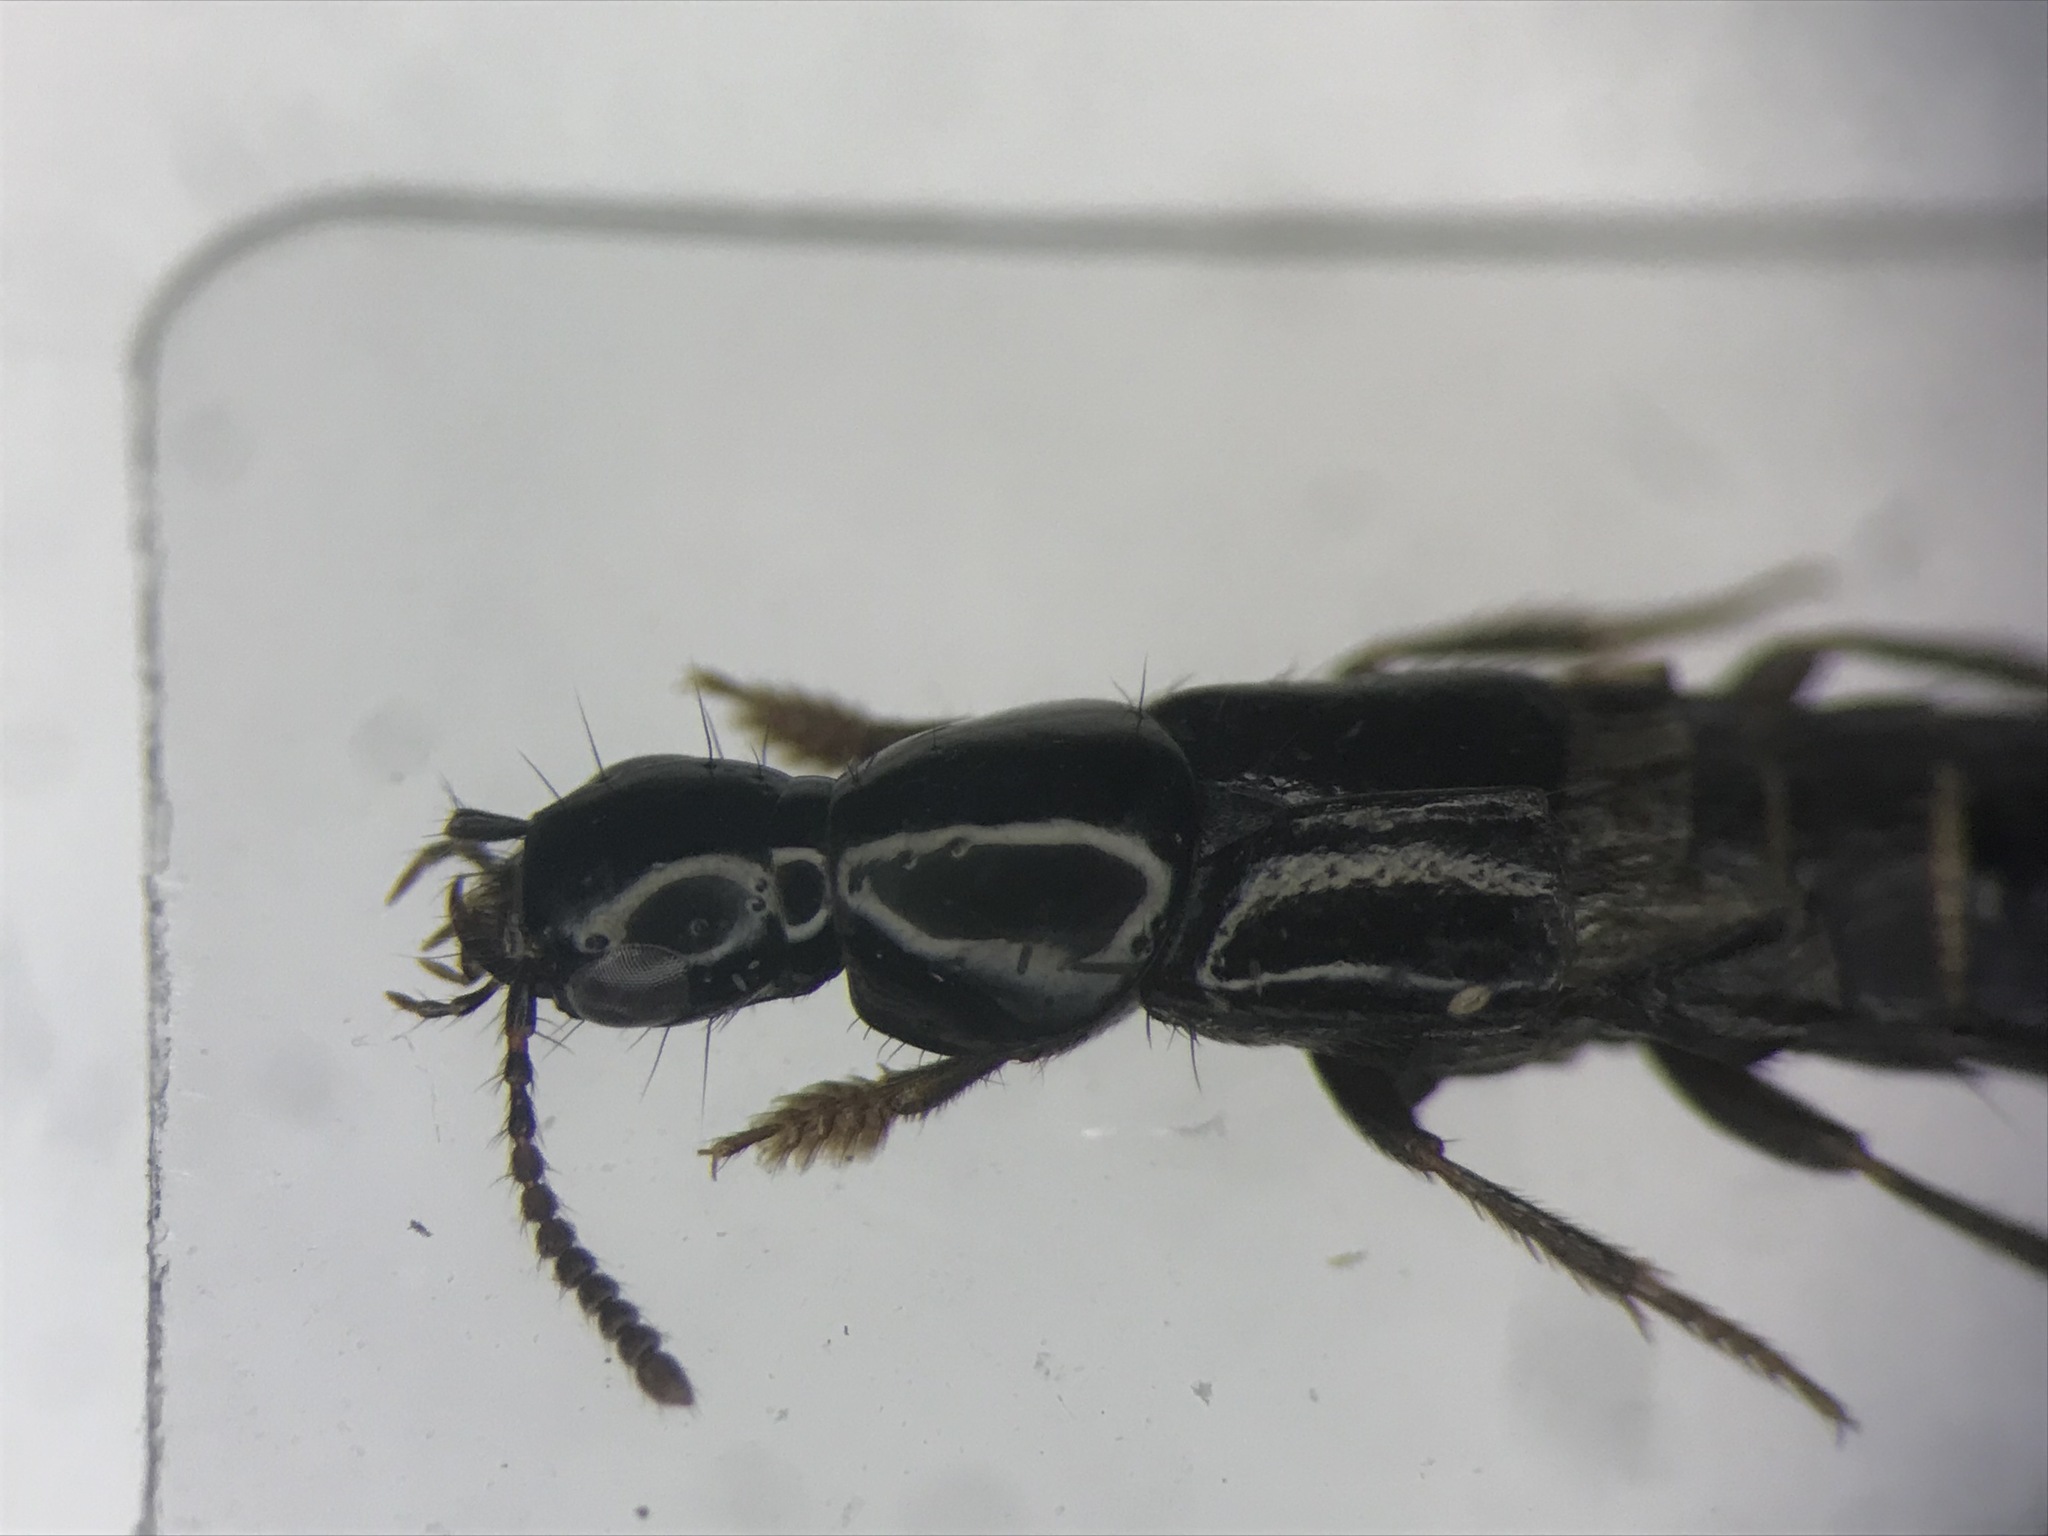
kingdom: Animalia
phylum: Arthropoda
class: Insecta
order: Coleoptera
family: Staphylinidae
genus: Quedius
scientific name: Quedius capucinus
